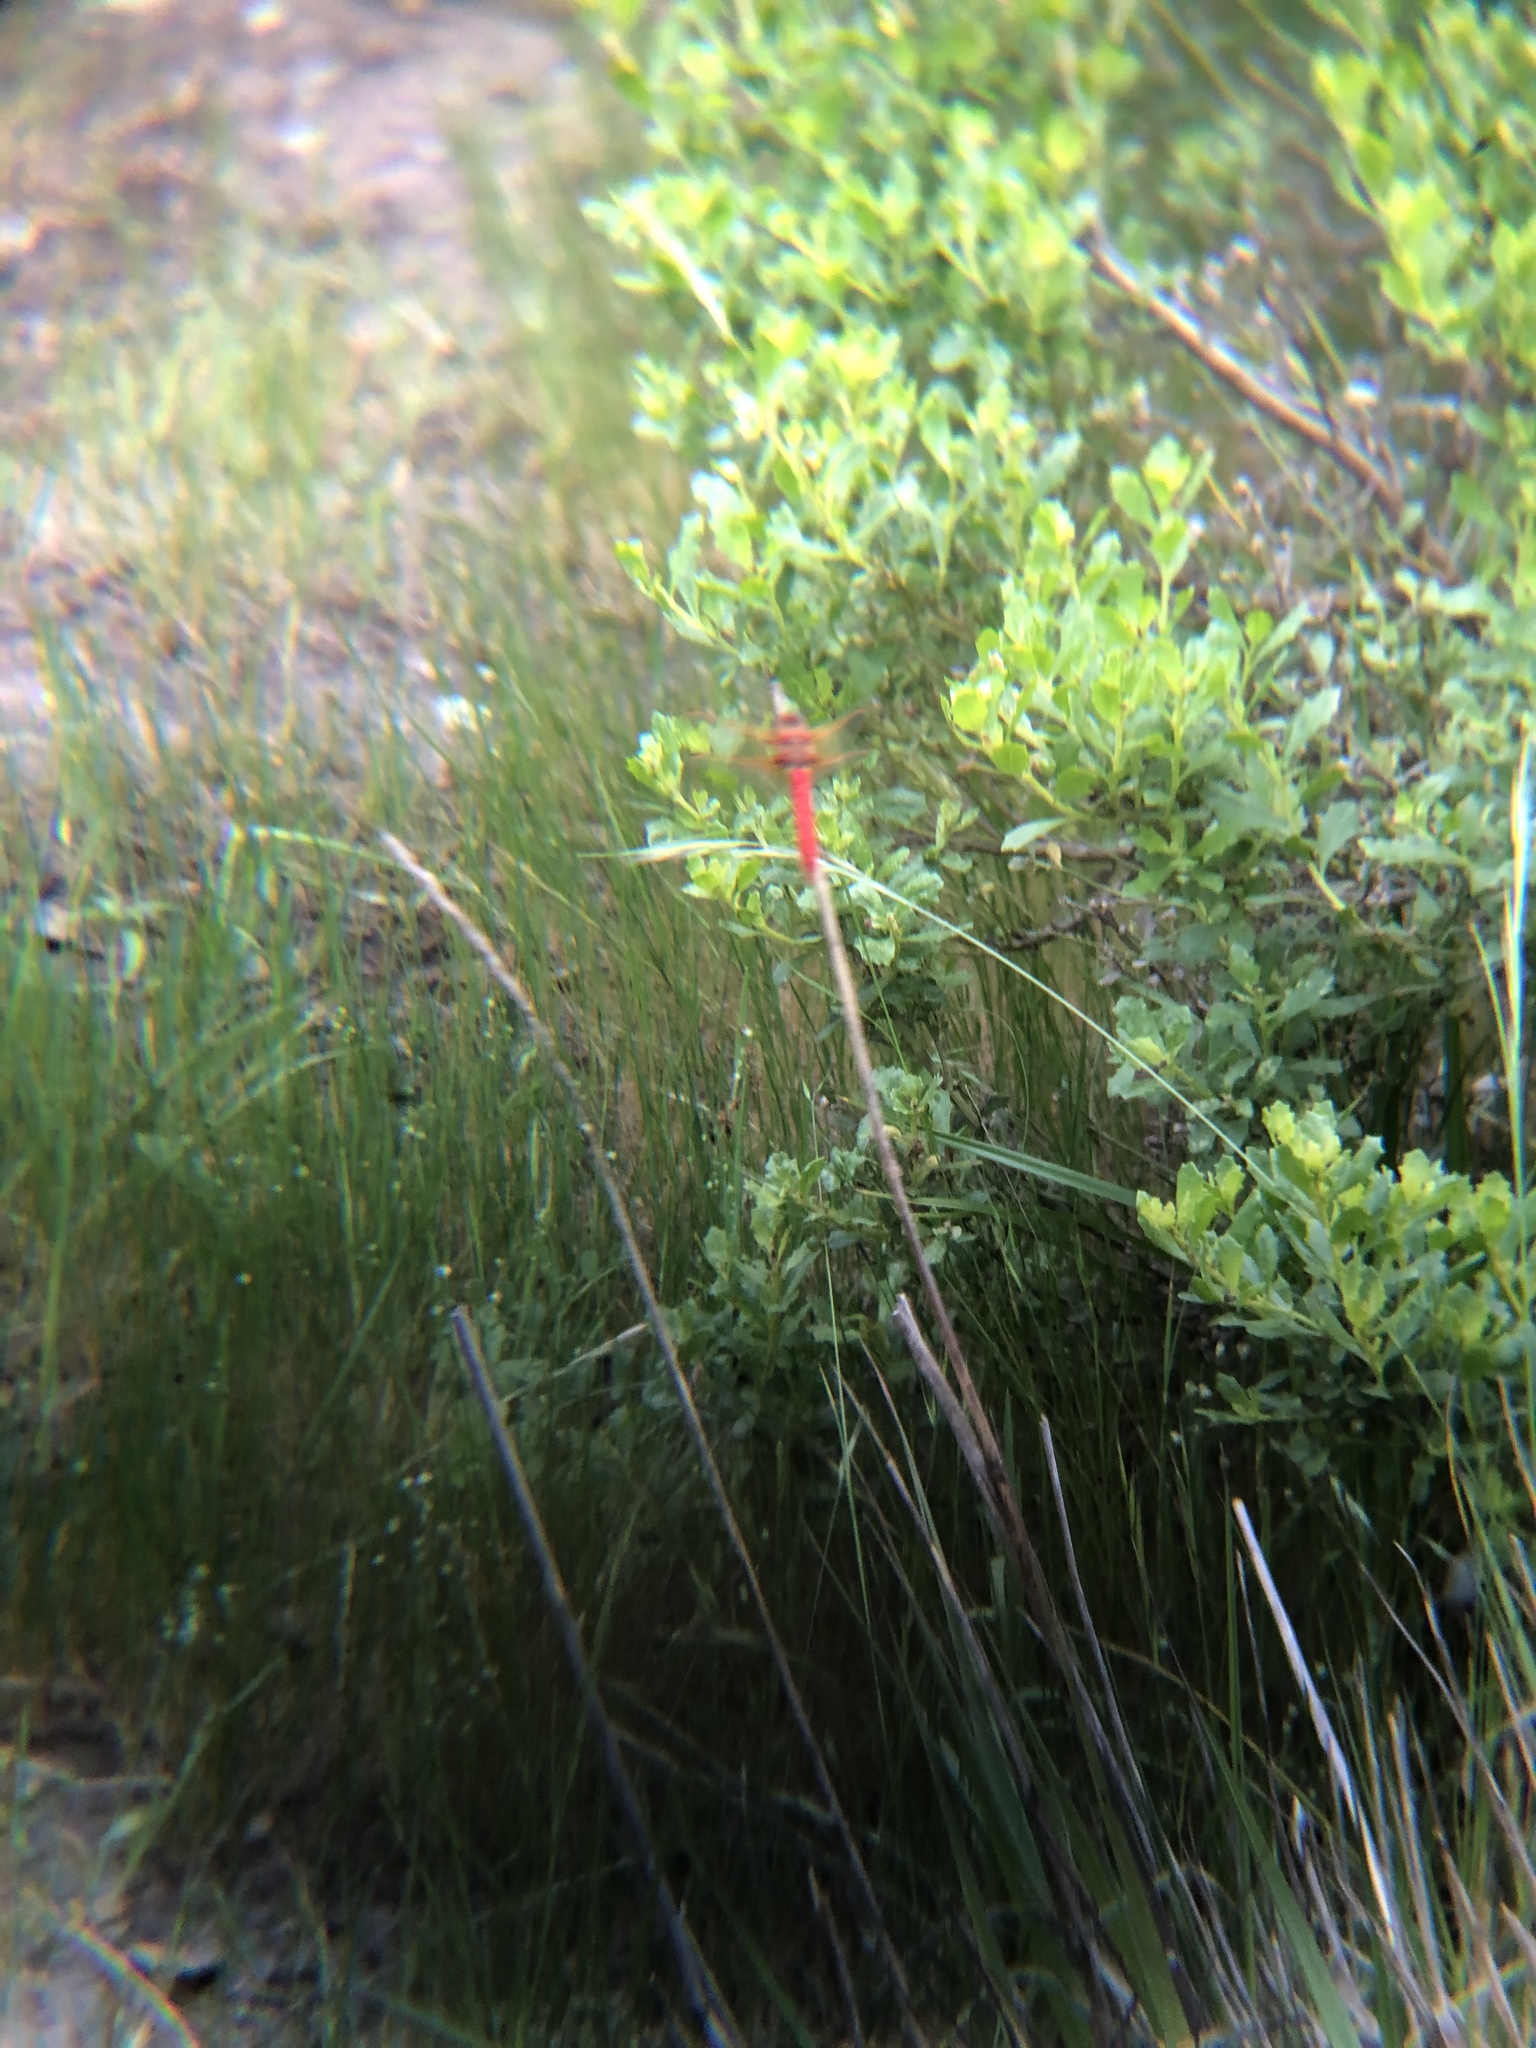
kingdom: Animalia
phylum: Arthropoda
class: Insecta
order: Odonata
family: Libellulidae
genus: Sympetrum
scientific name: Sympetrum illotum
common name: Cardinal meadowhawk
